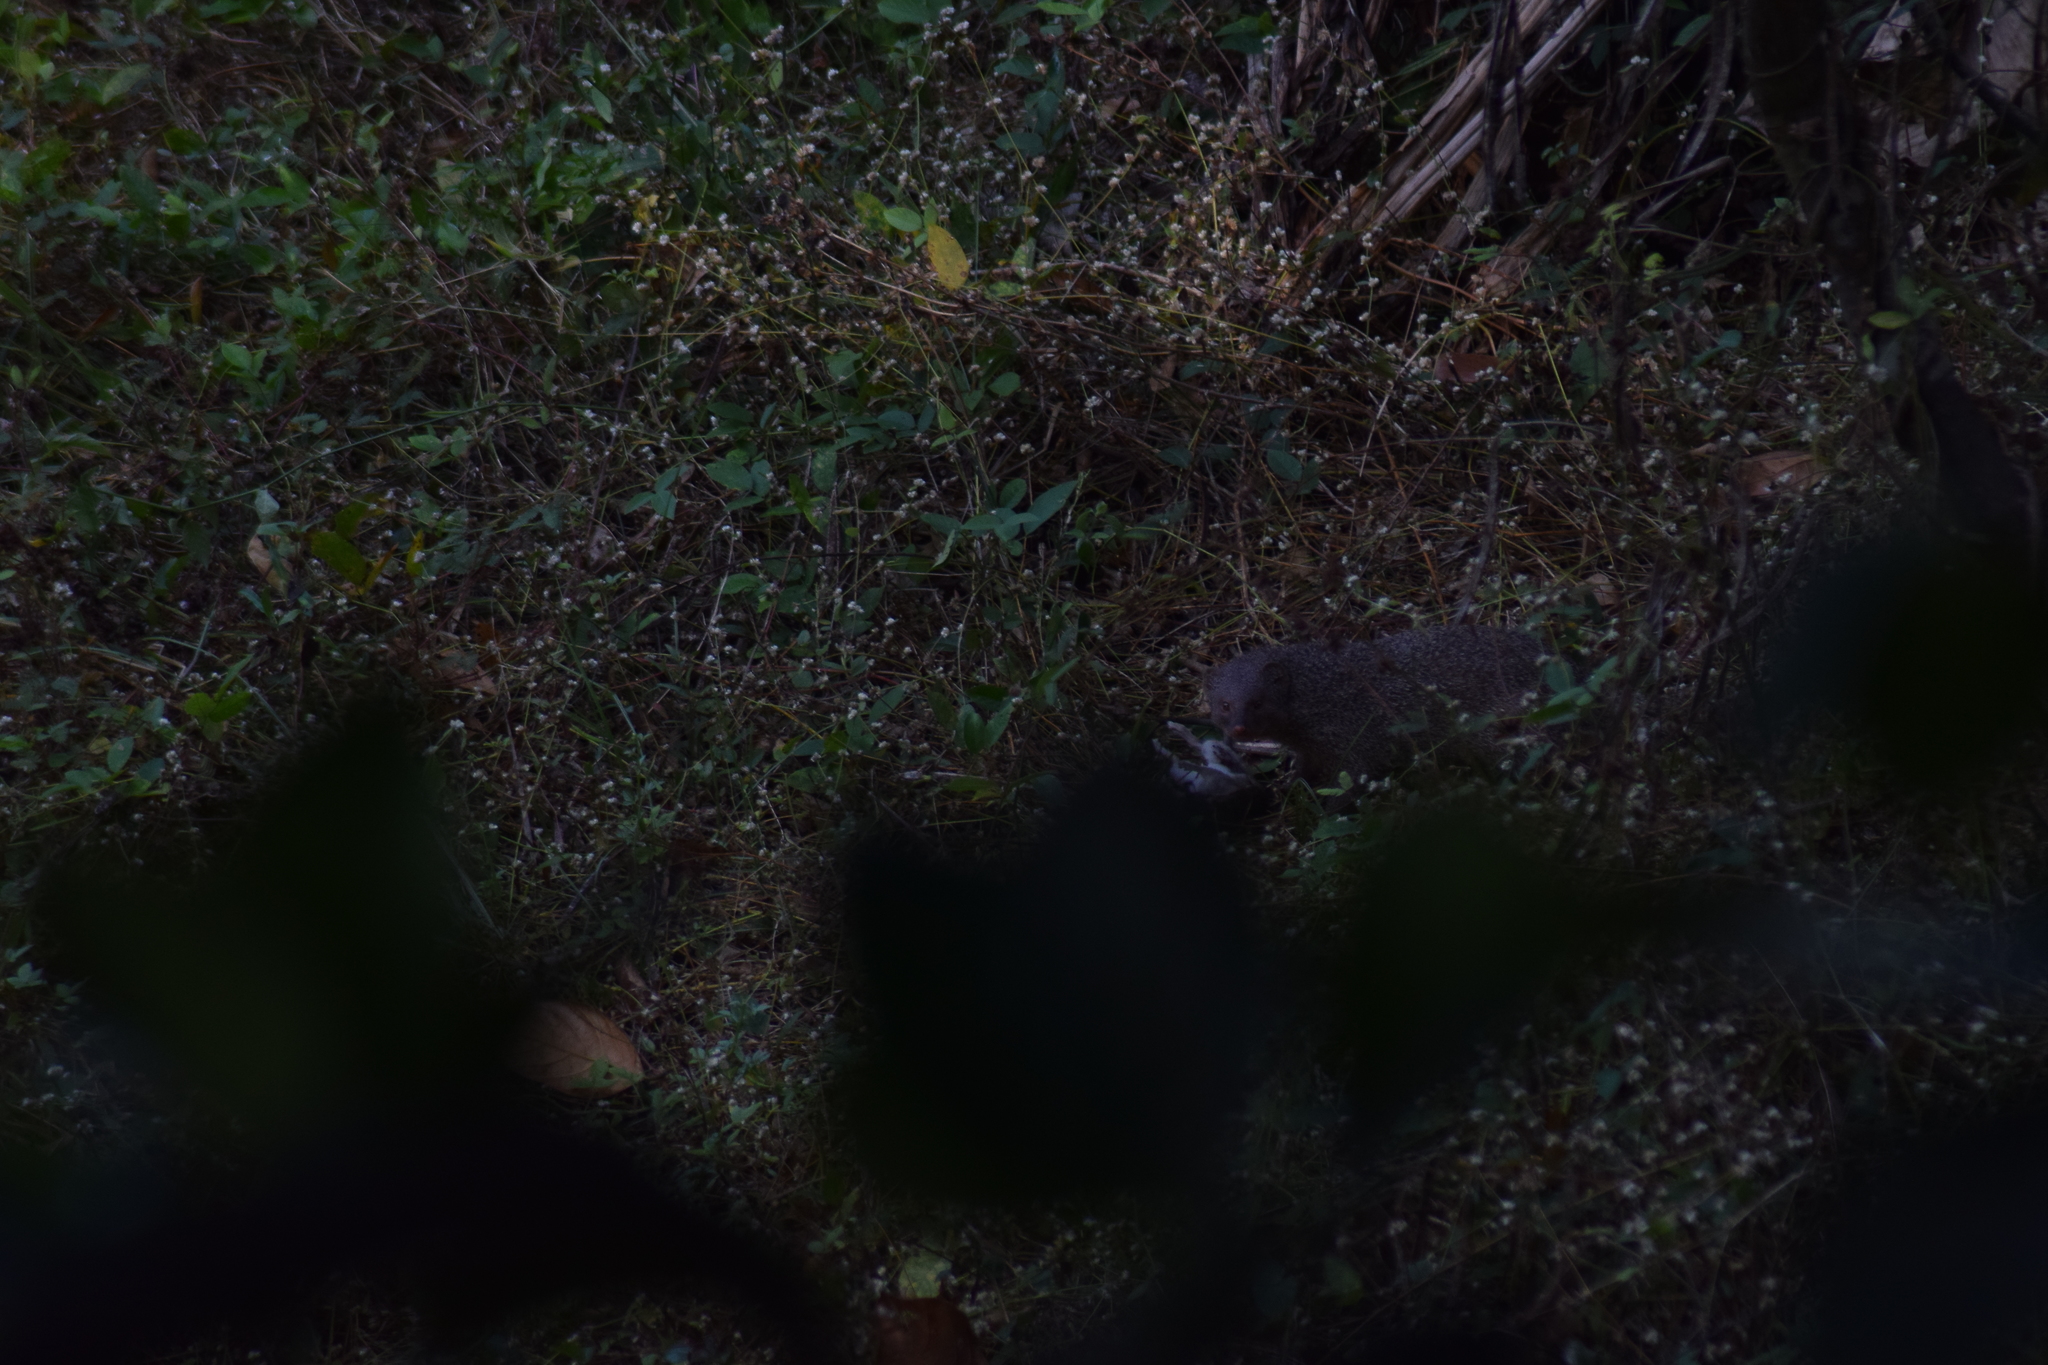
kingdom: Animalia
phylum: Chordata
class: Mammalia
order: Carnivora
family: Herpestidae
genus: Herpestes
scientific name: Herpestes edwardsi
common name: Indian gray mongoose
